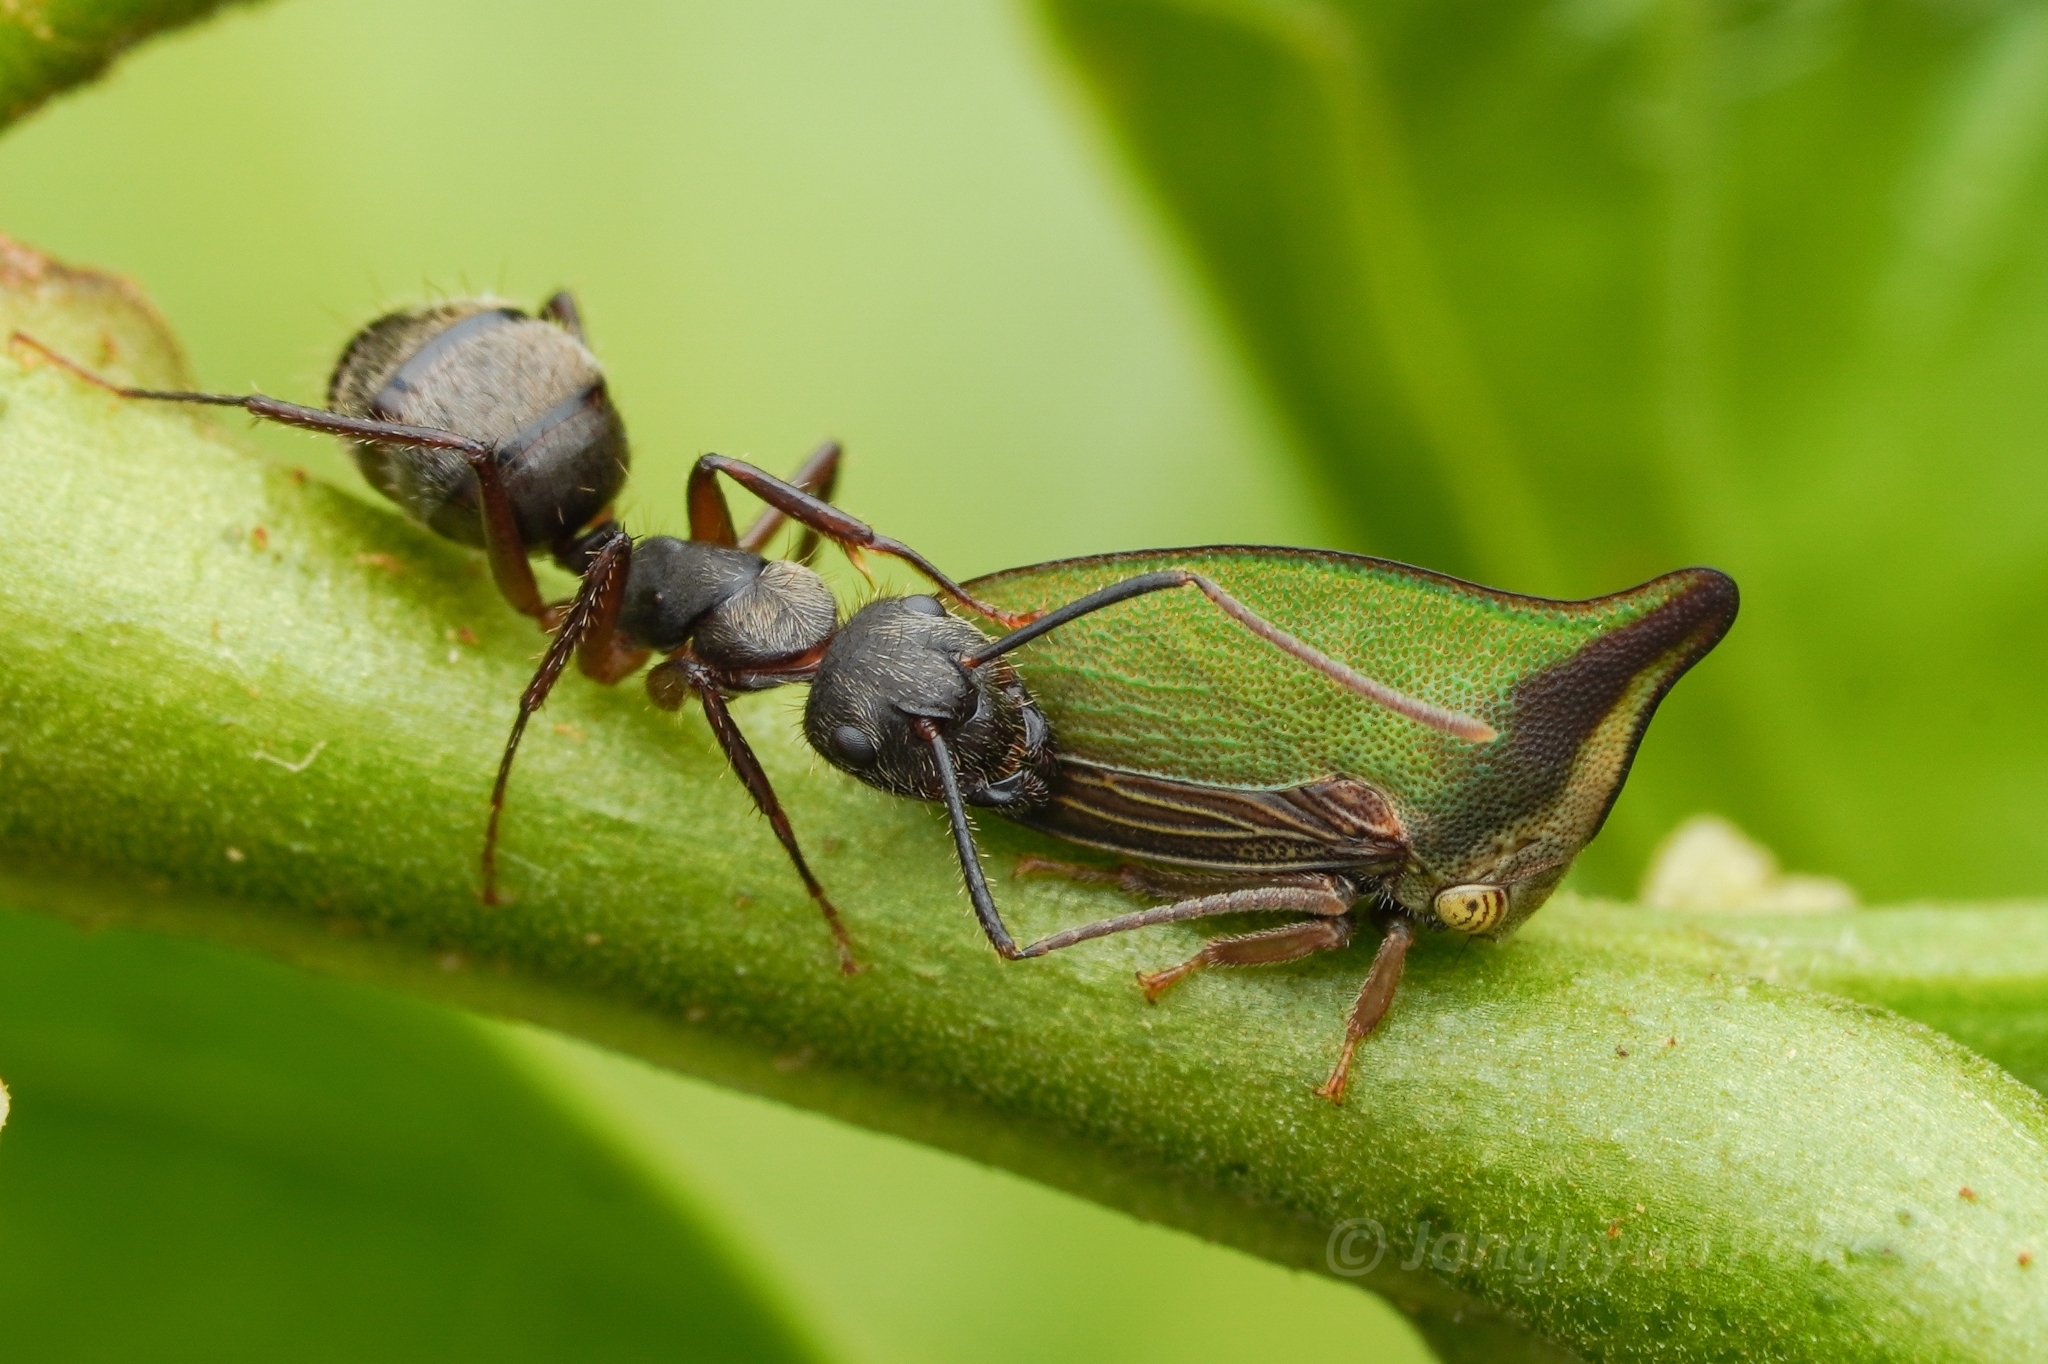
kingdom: Animalia
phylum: Arthropoda
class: Insecta
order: Hymenoptera
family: Formicidae
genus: Camponotus
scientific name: Camponotus femoratus
